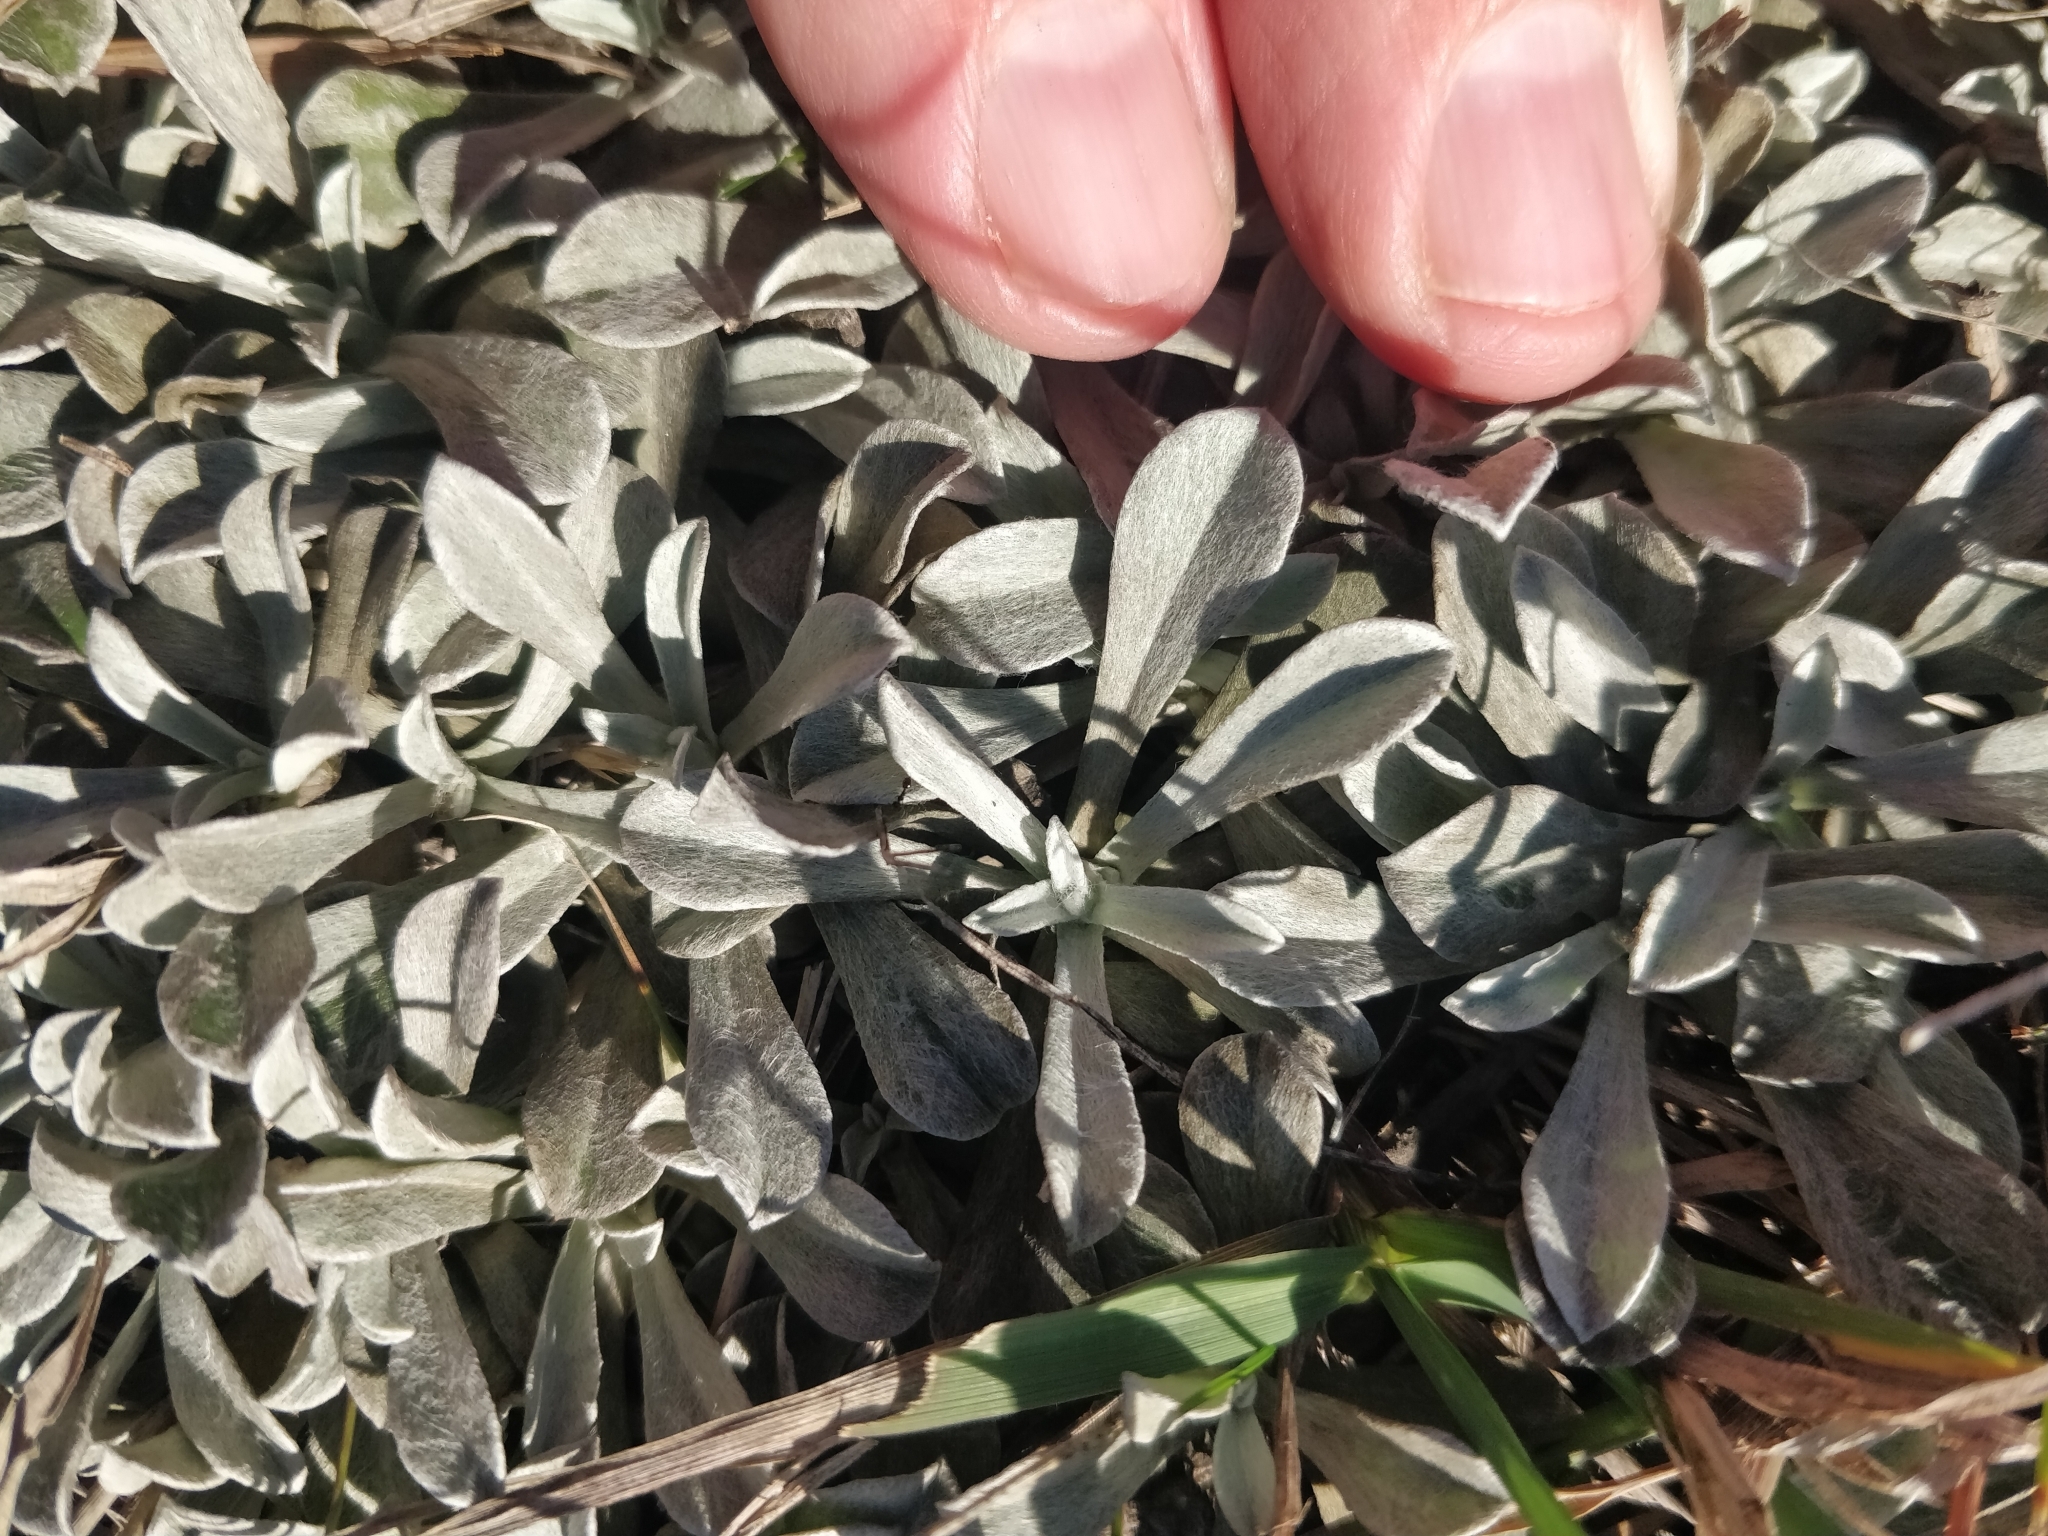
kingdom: Plantae
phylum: Tracheophyta
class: Magnoliopsida
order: Asterales
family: Asteraceae
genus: Antennaria
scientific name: Antennaria parvifolia
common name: Nuttall's pussytoes
